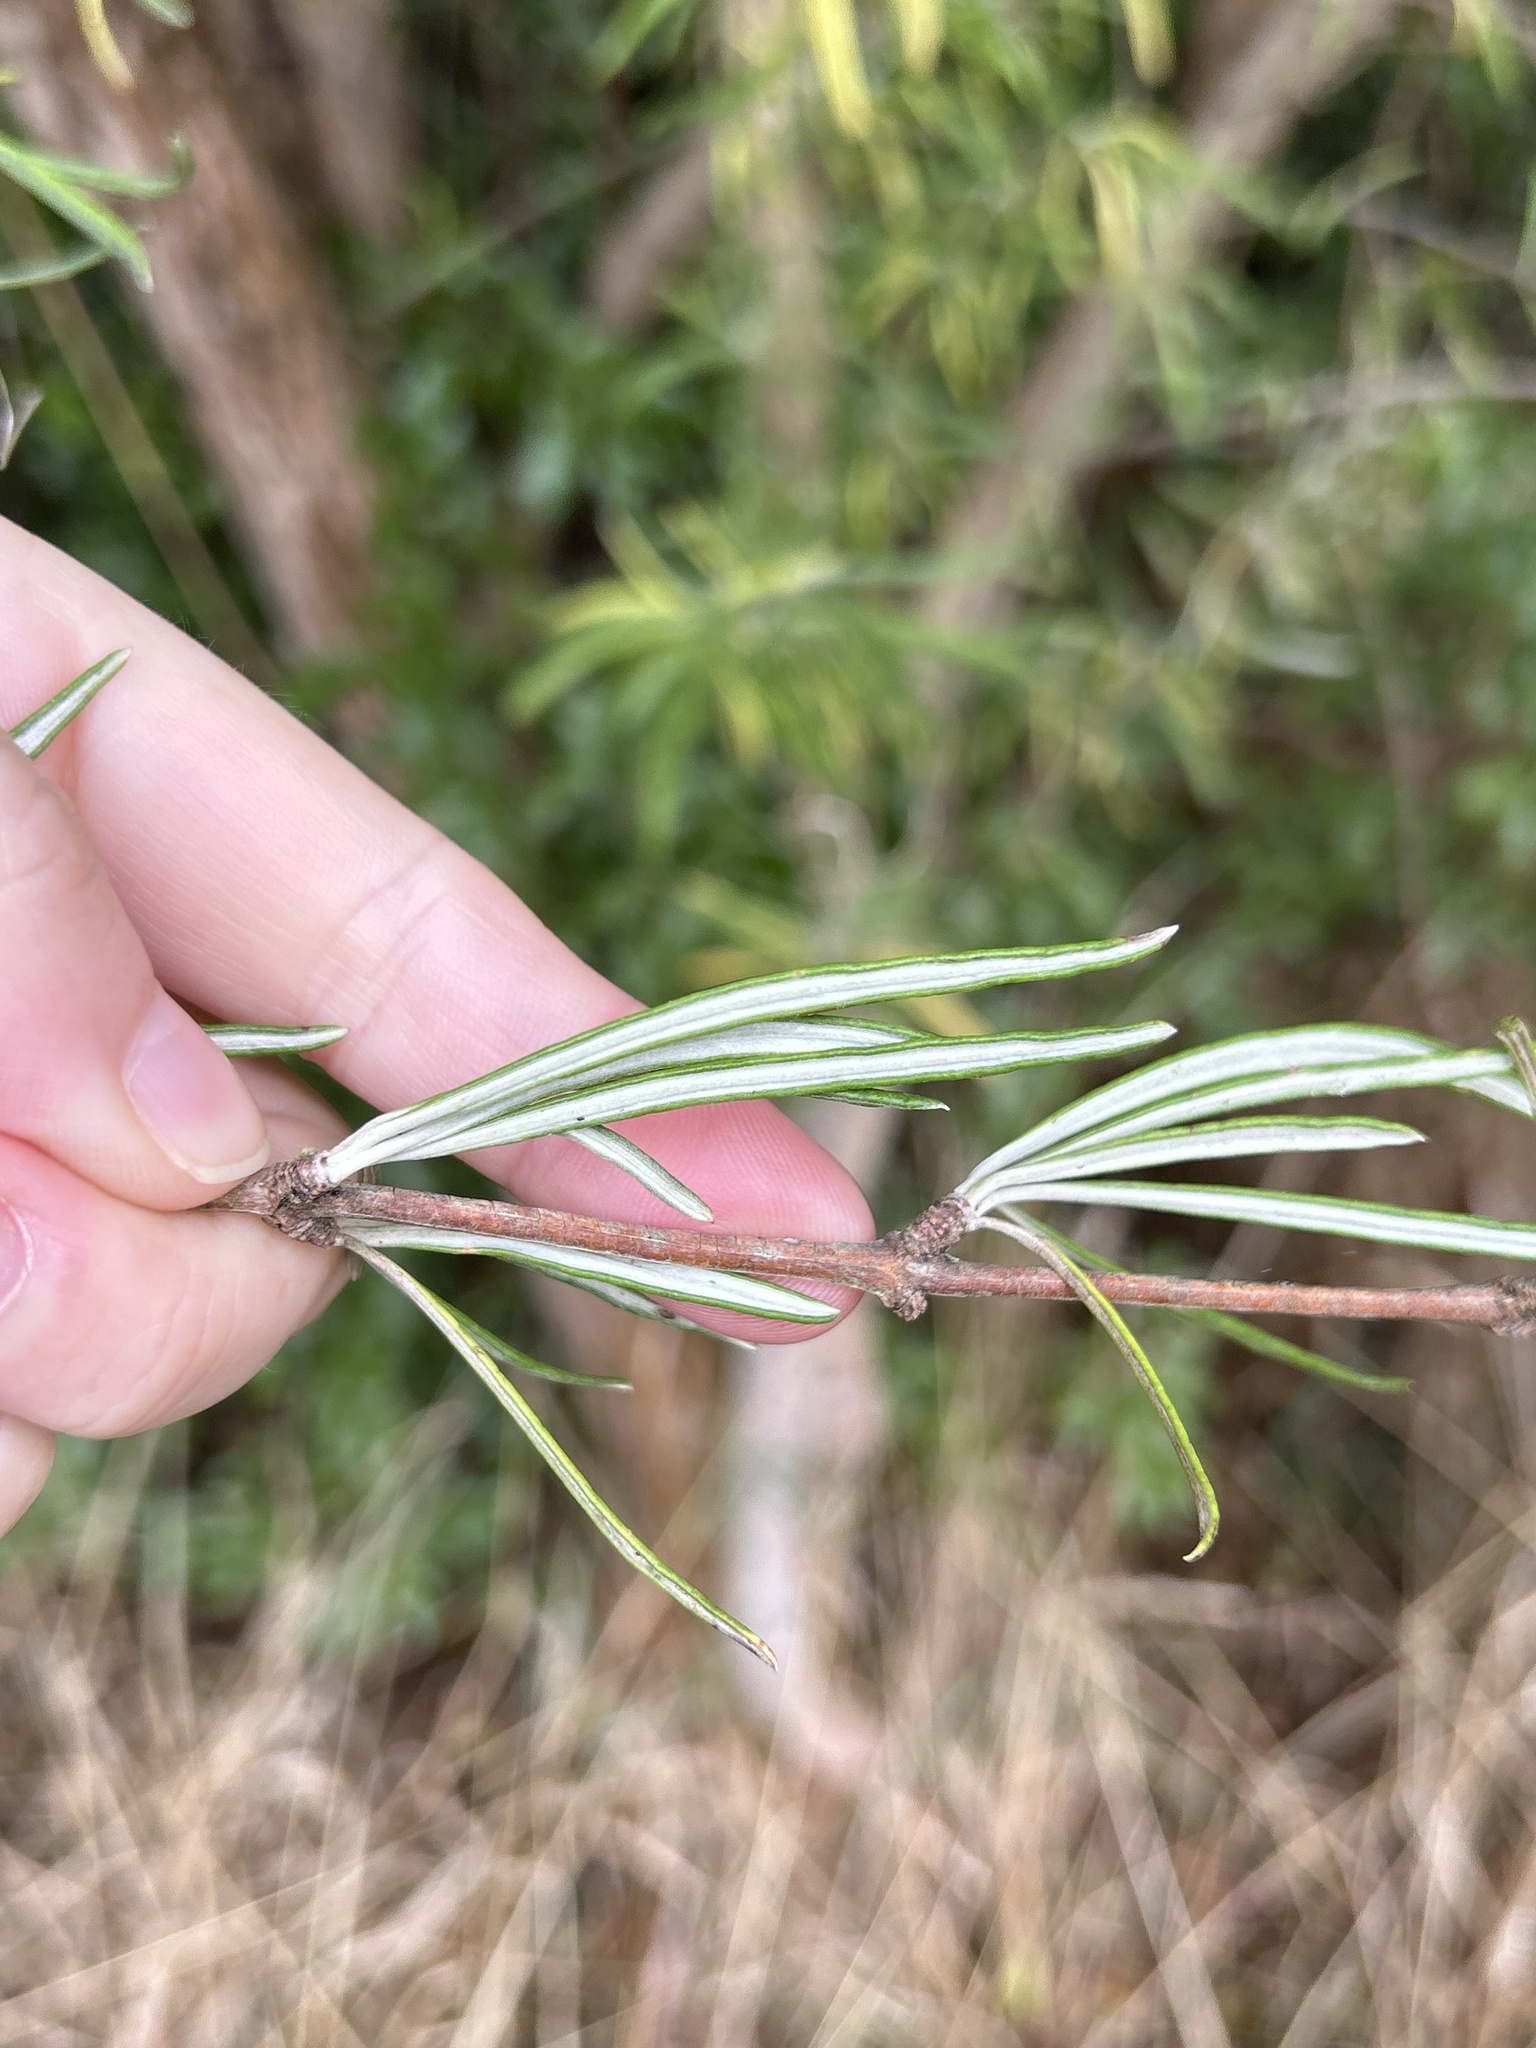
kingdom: Plantae
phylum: Tracheophyta
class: Magnoliopsida
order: Asterales
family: Asteraceae
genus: Olearia
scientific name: Olearia lineata
